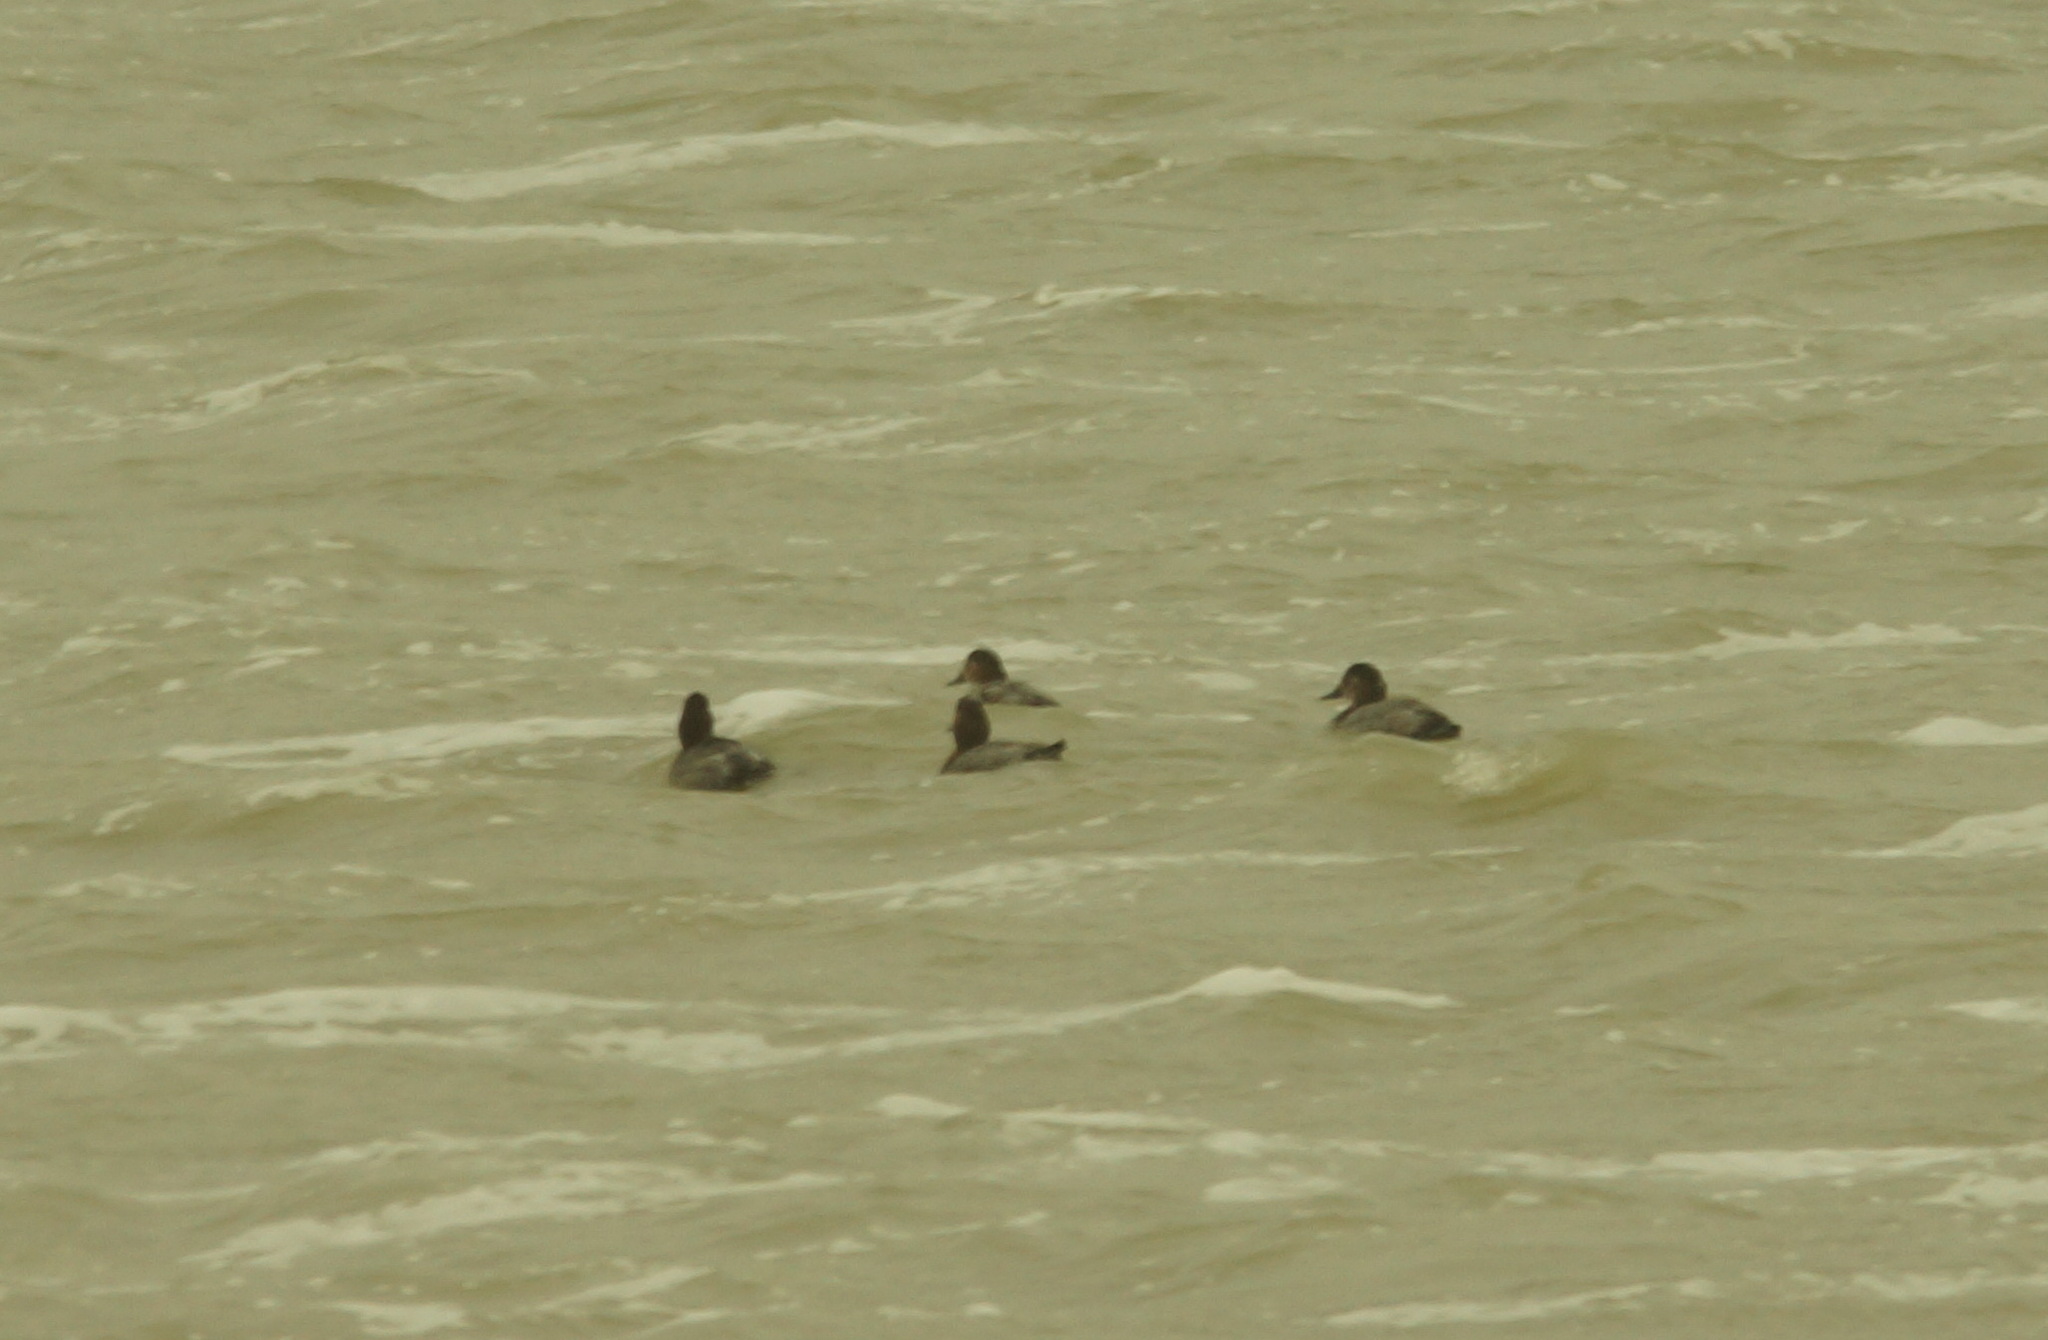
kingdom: Animalia
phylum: Chordata
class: Aves
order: Anseriformes
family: Anatidae
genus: Aythya
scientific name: Aythya ferina
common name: Common pochard
